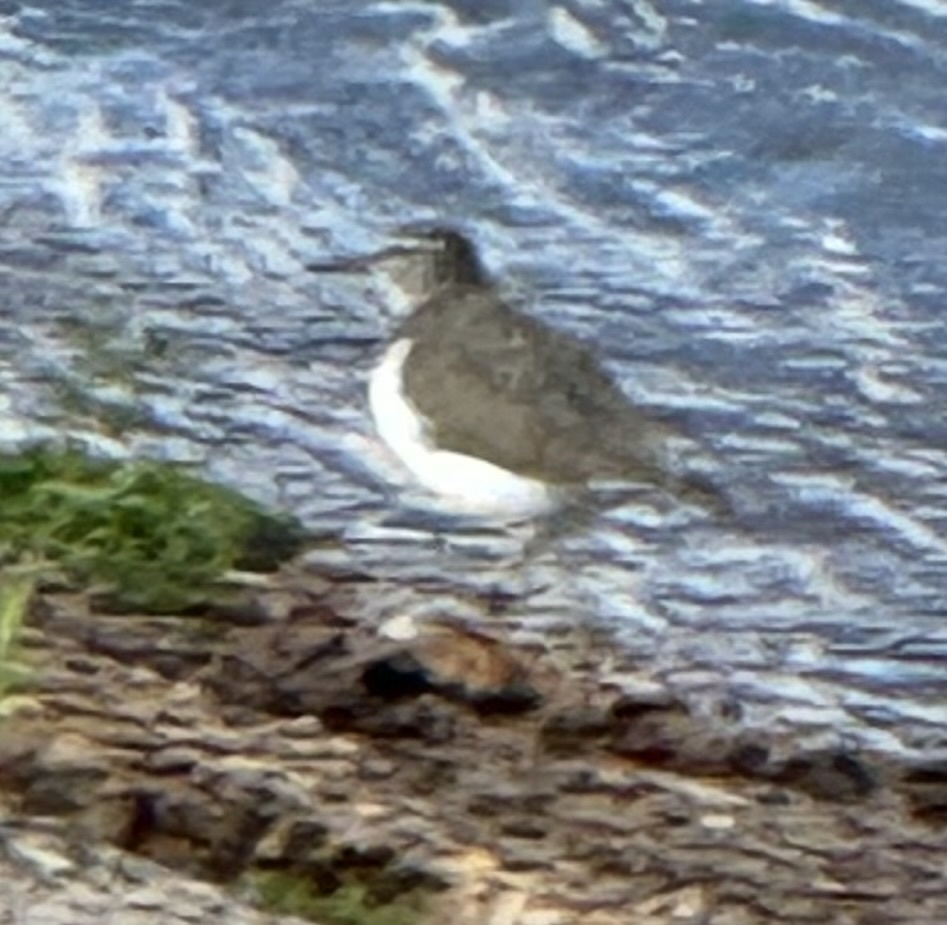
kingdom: Animalia
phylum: Chordata
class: Aves
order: Charadriiformes
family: Scolopacidae
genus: Actitis
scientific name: Actitis macularius
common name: Spotted sandpiper
